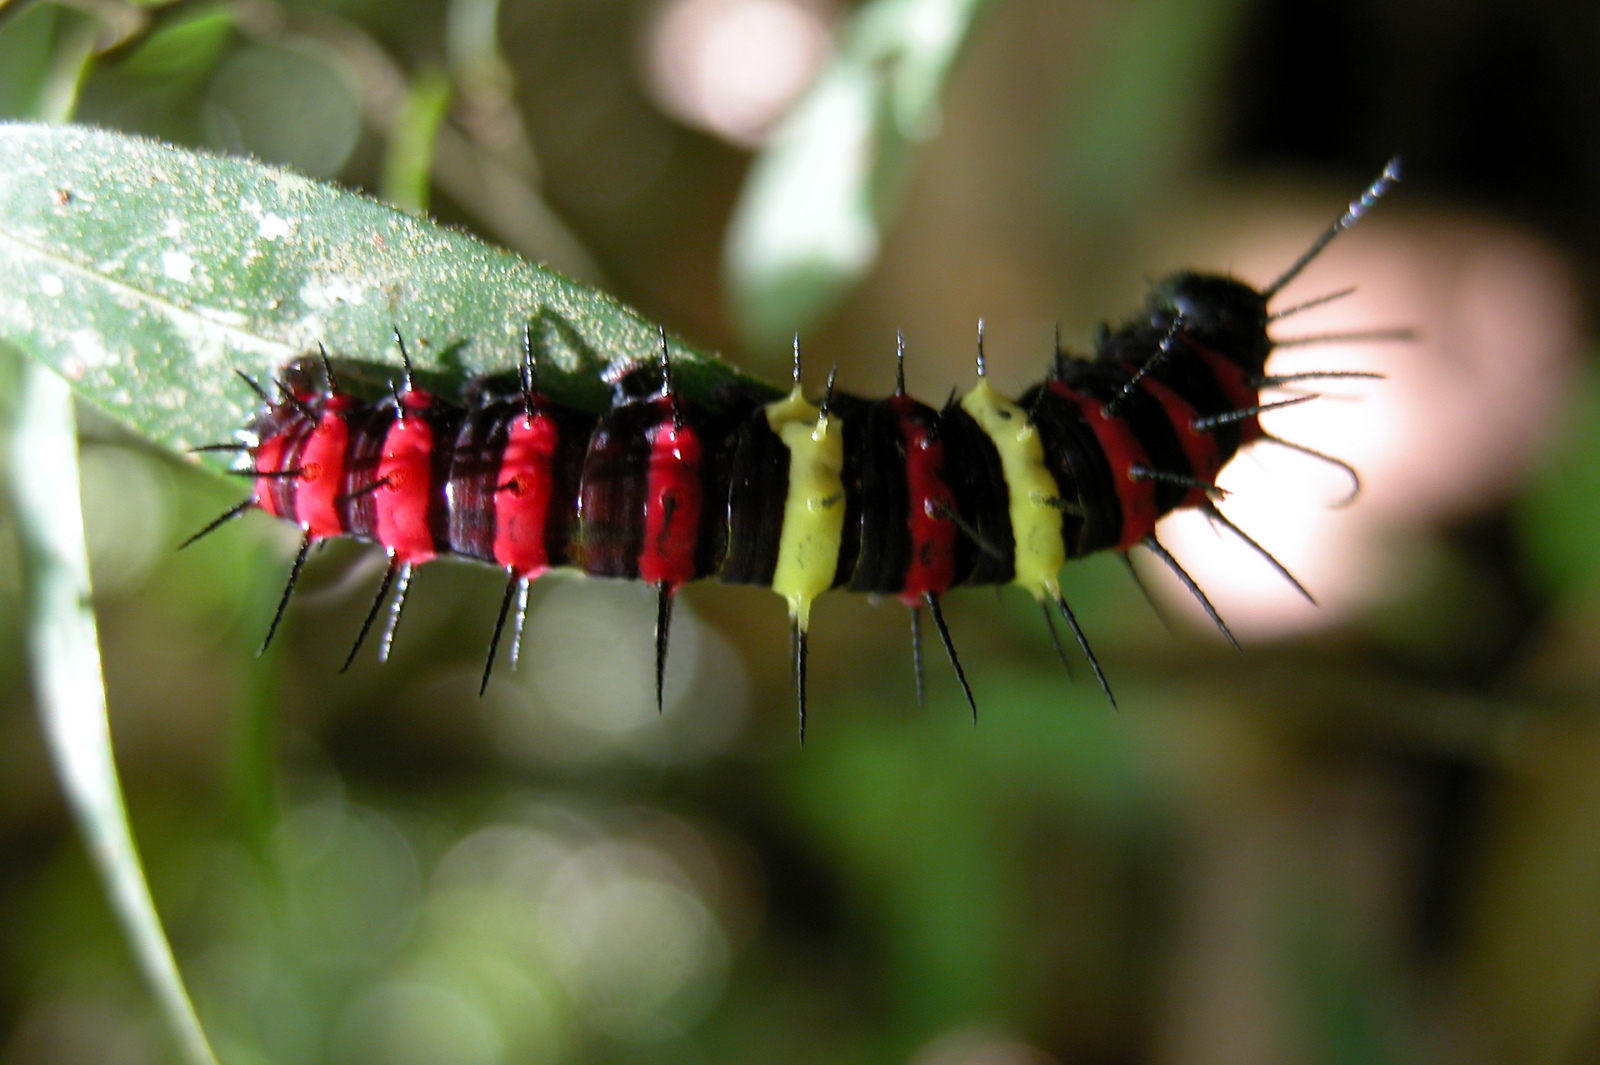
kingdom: Animalia
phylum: Arthropoda
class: Insecta
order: Lepidoptera
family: Nymphalidae
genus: Cethosia
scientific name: Cethosia
